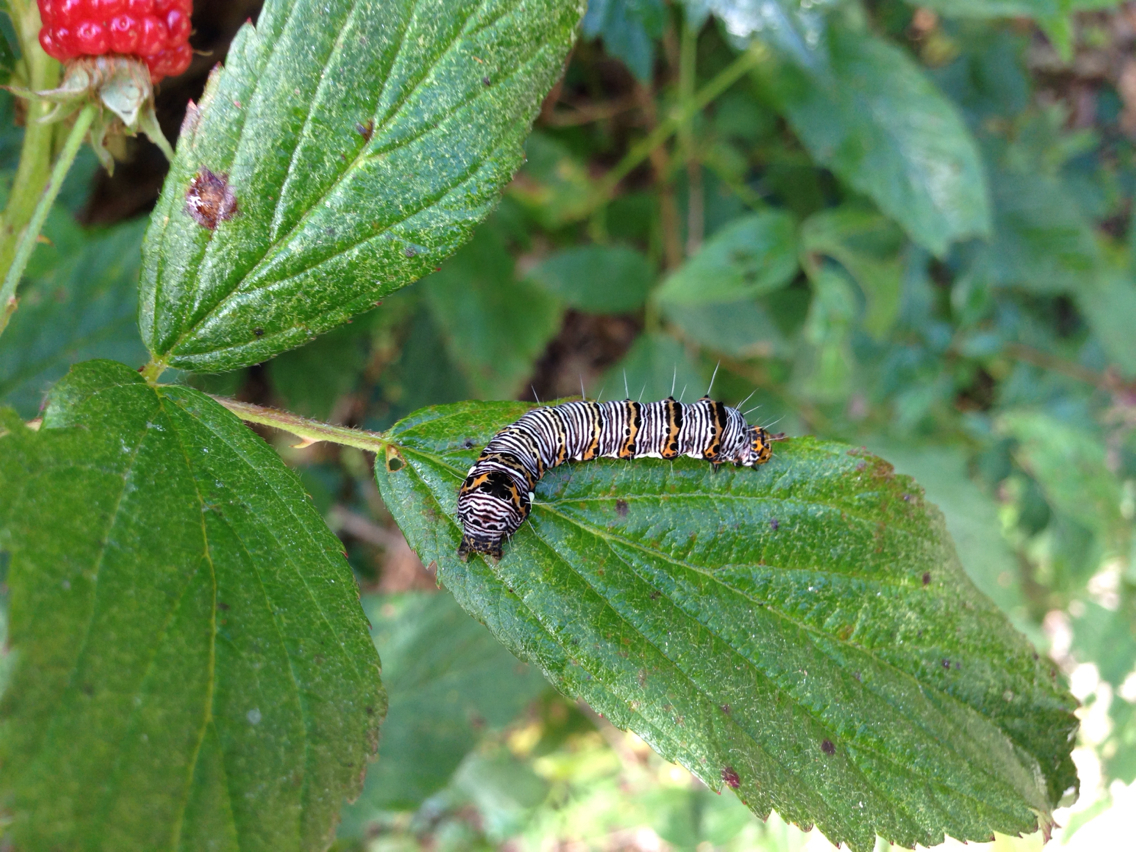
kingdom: Animalia
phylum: Arthropoda
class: Insecta
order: Lepidoptera
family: Noctuidae
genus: Alypia
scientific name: Alypia octomaculata
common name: Eight-spotted forester
